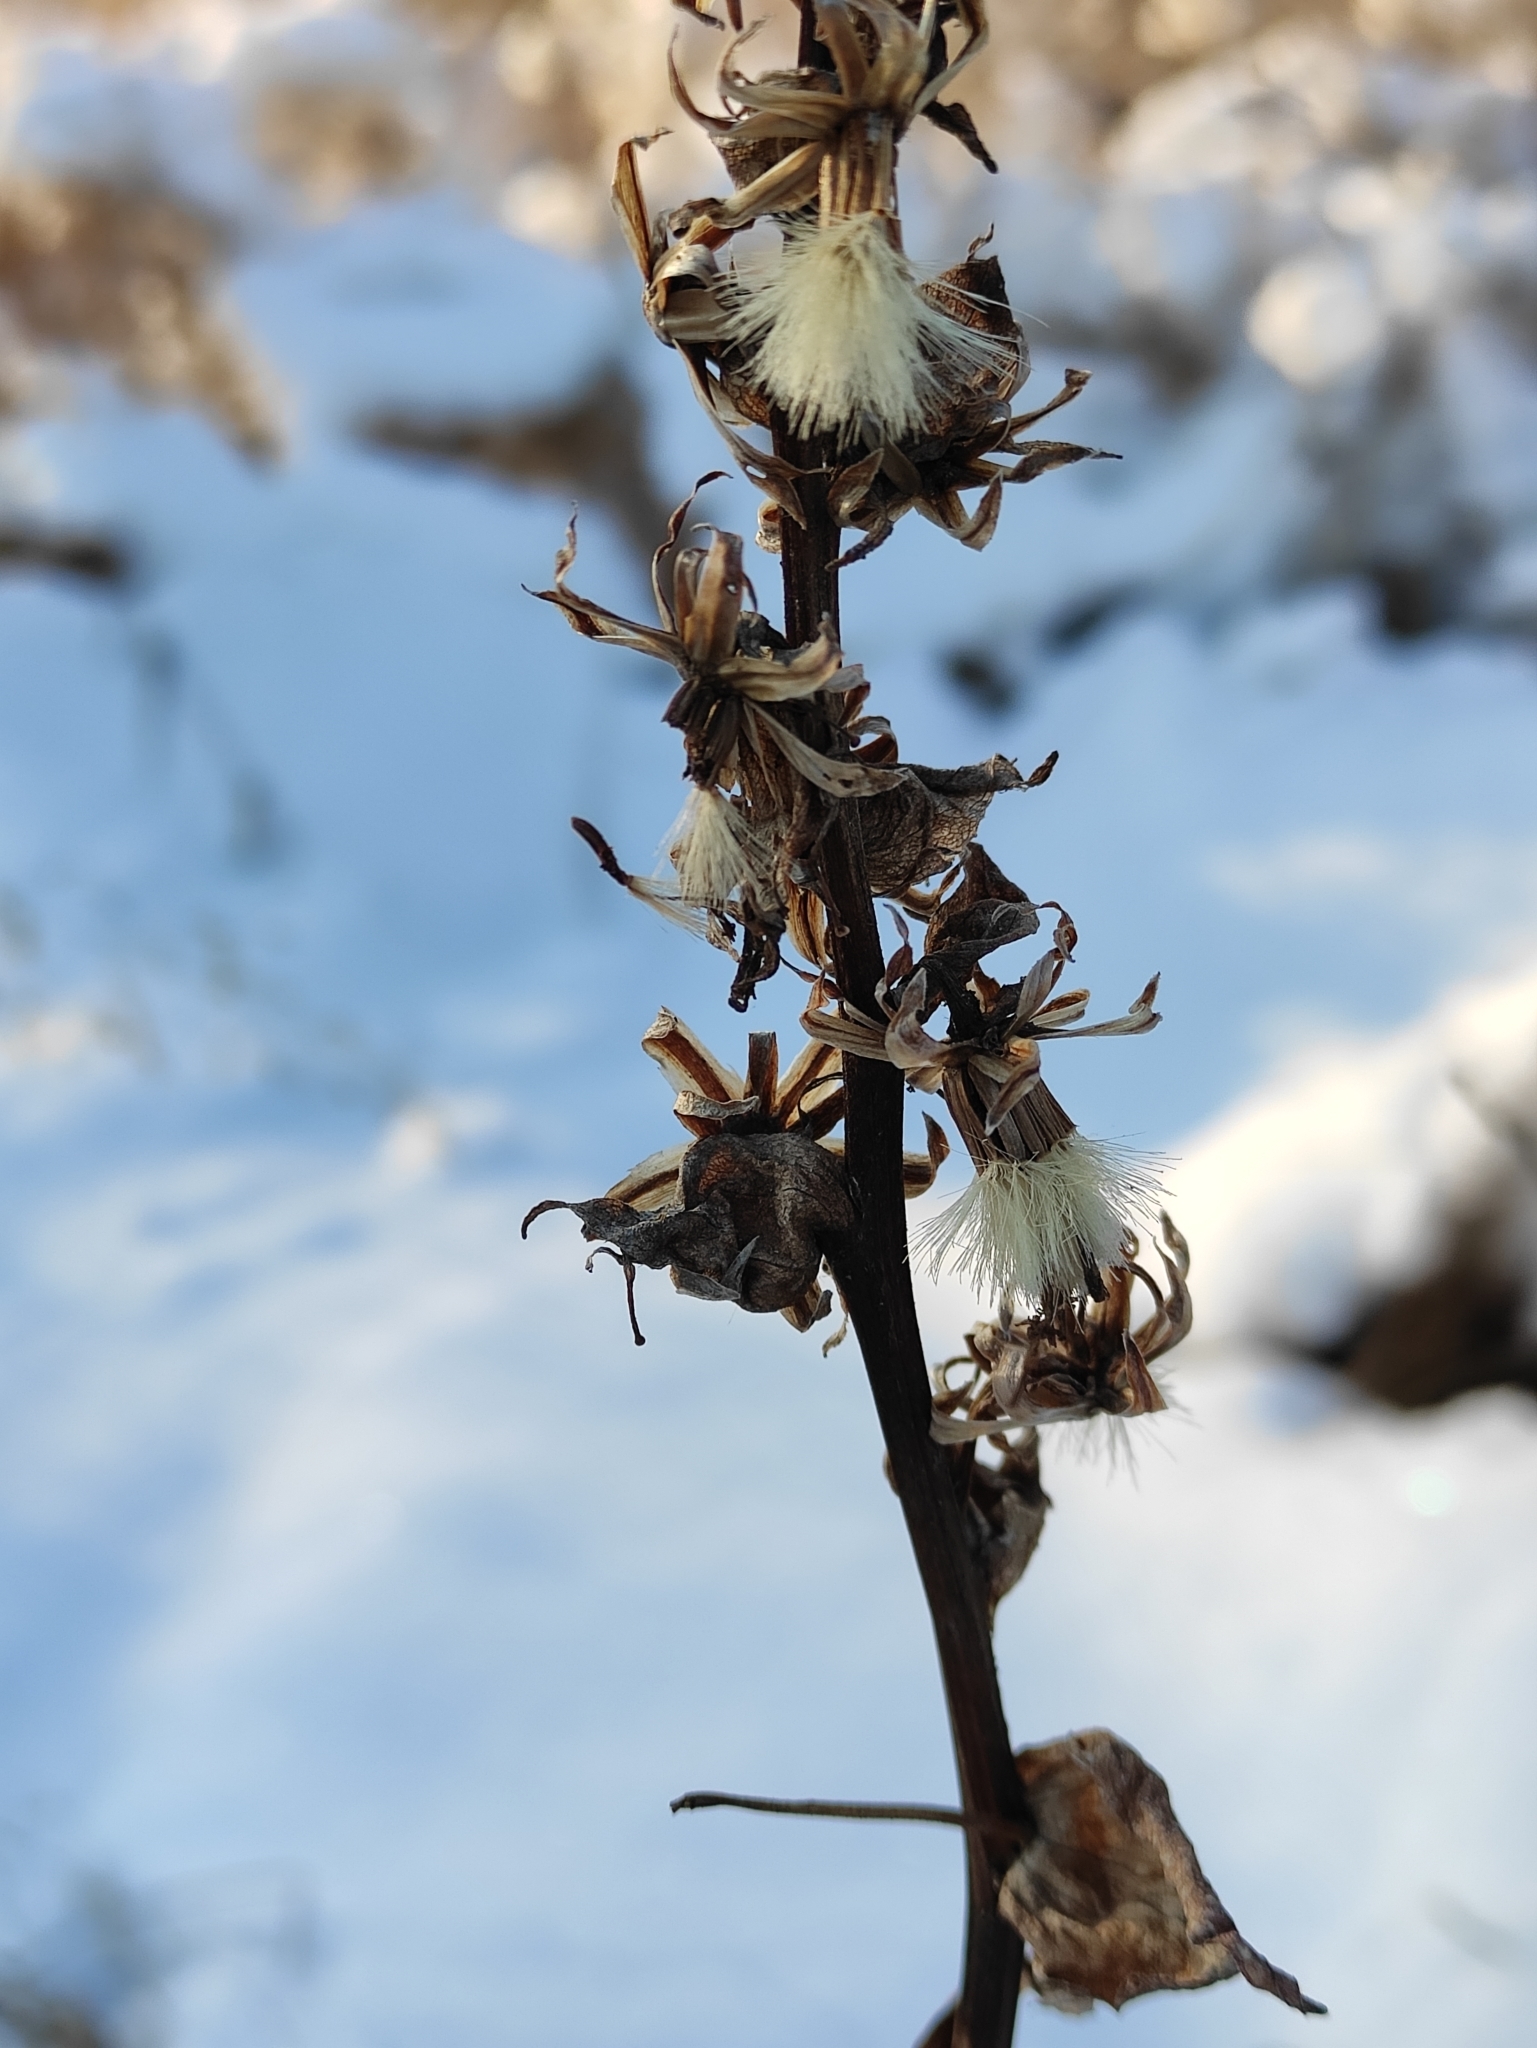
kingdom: Plantae
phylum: Tracheophyta
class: Magnoliopsida
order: Asterales
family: Asteraceae
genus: Ligularia
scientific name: Ligularia sibirica
